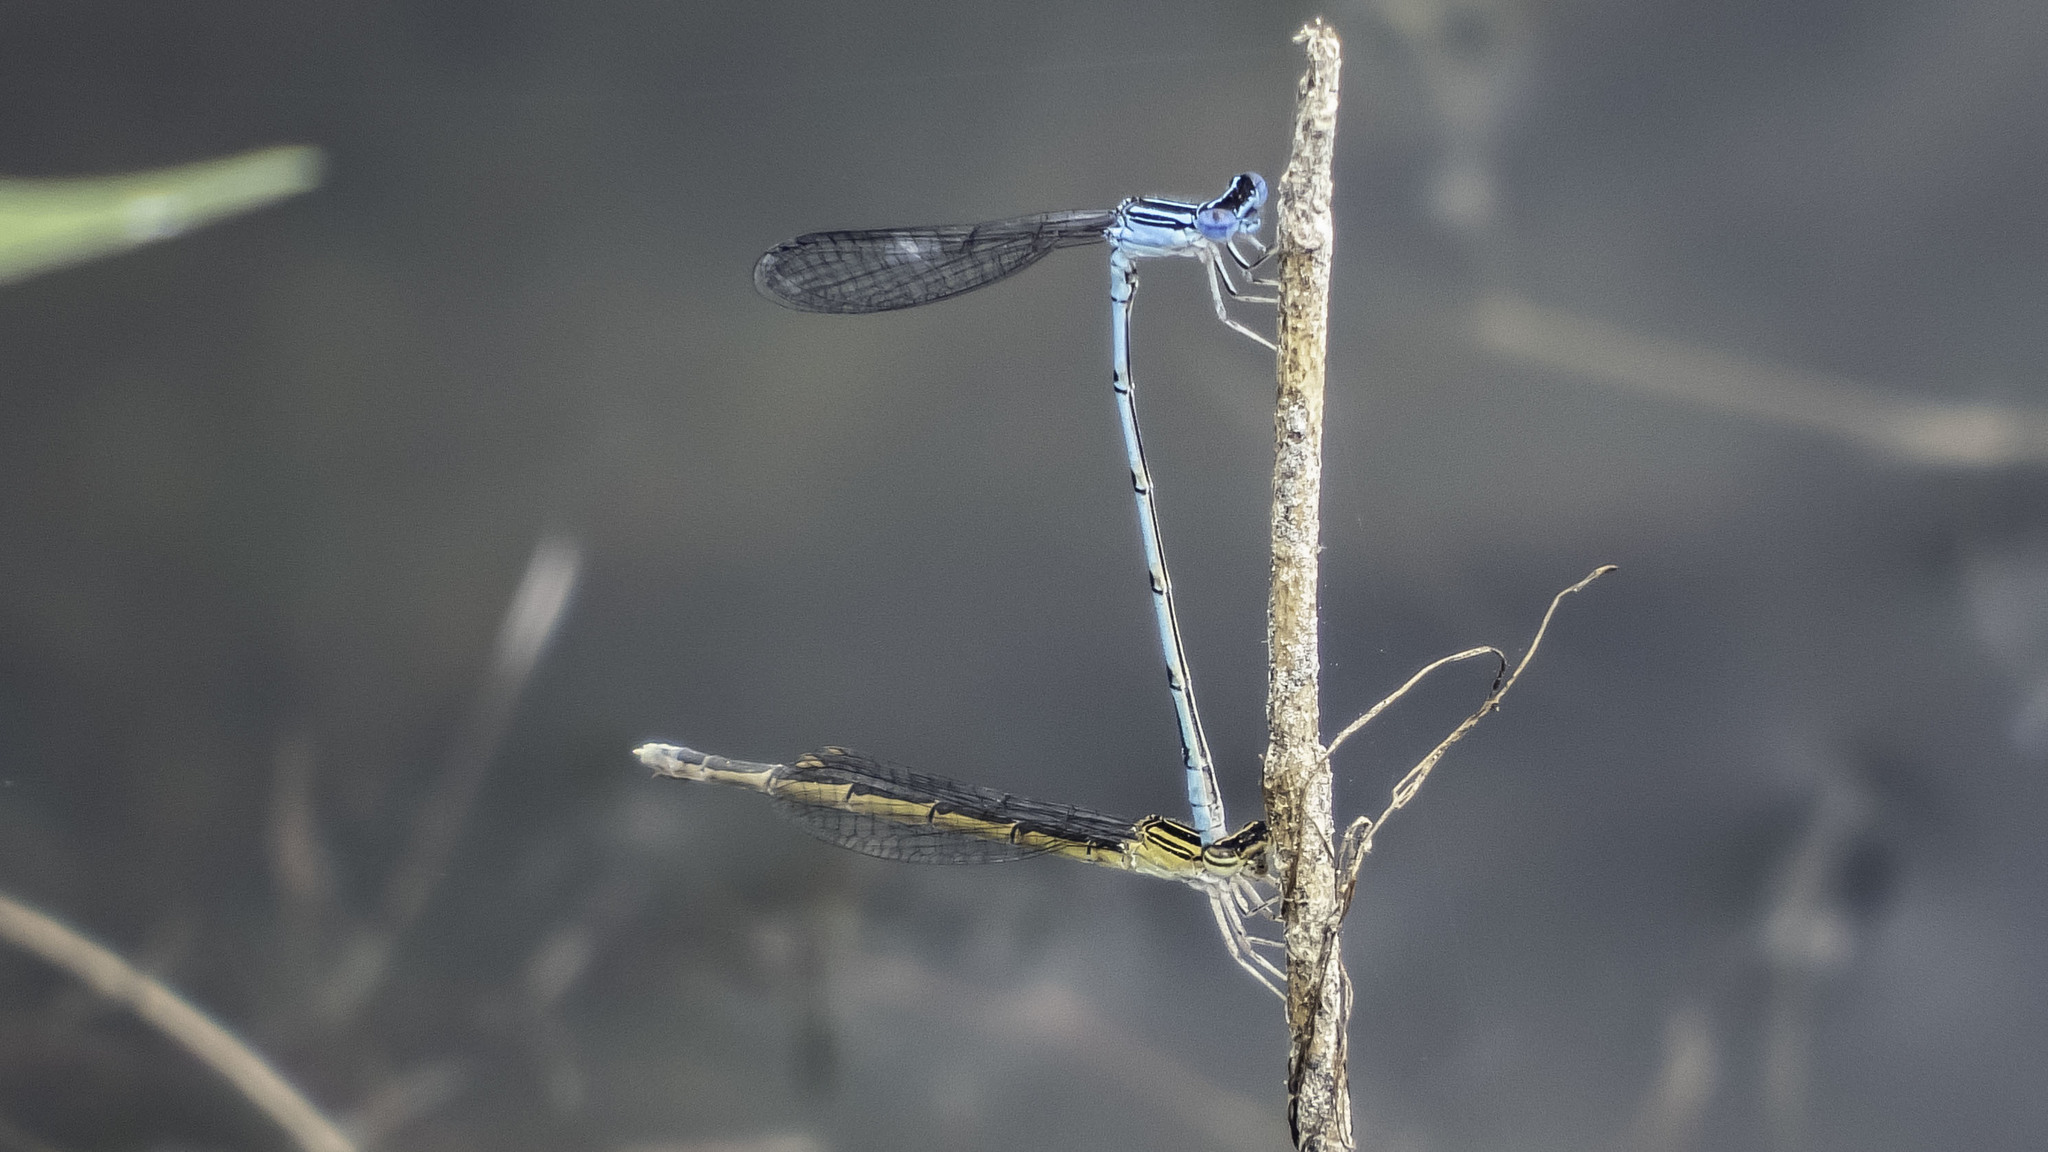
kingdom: Animalia
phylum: Arthropoda
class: Insecta
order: Odonata
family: Coenagrionidae
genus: Enallagma
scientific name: Enallagma basidens
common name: Double-striped bluet
